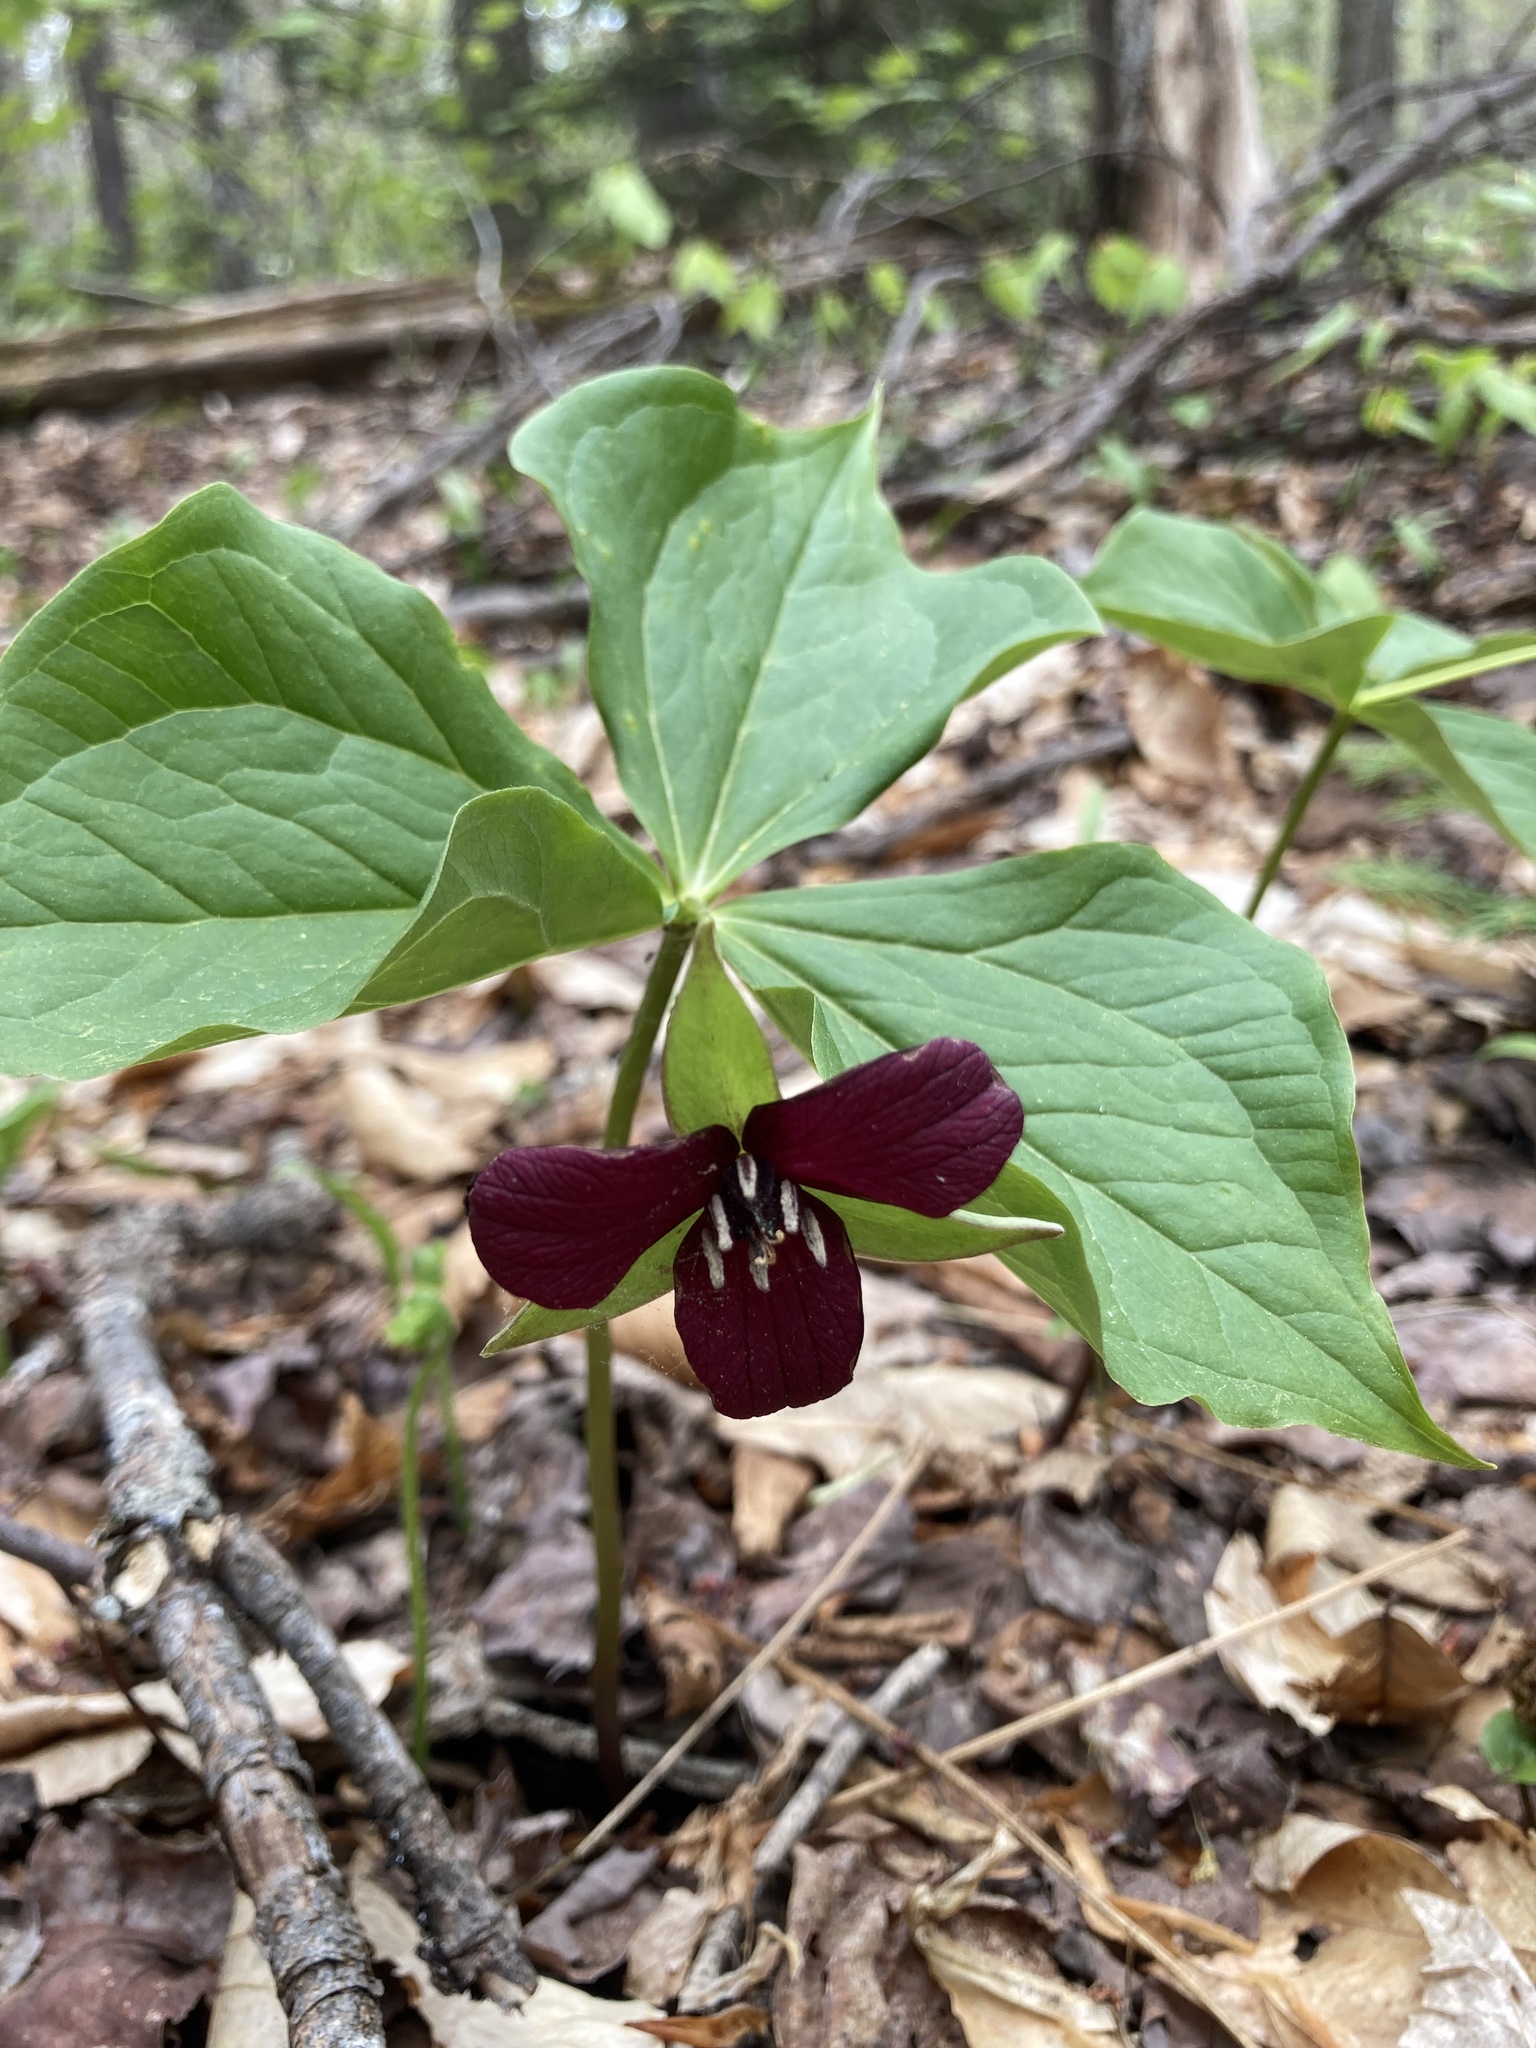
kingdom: Plantae
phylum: Tracheophyta
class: Liliopsida
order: Liliales
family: Melanthiaceae
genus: Trillium
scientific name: Trillium erectum
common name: Purple trillium
